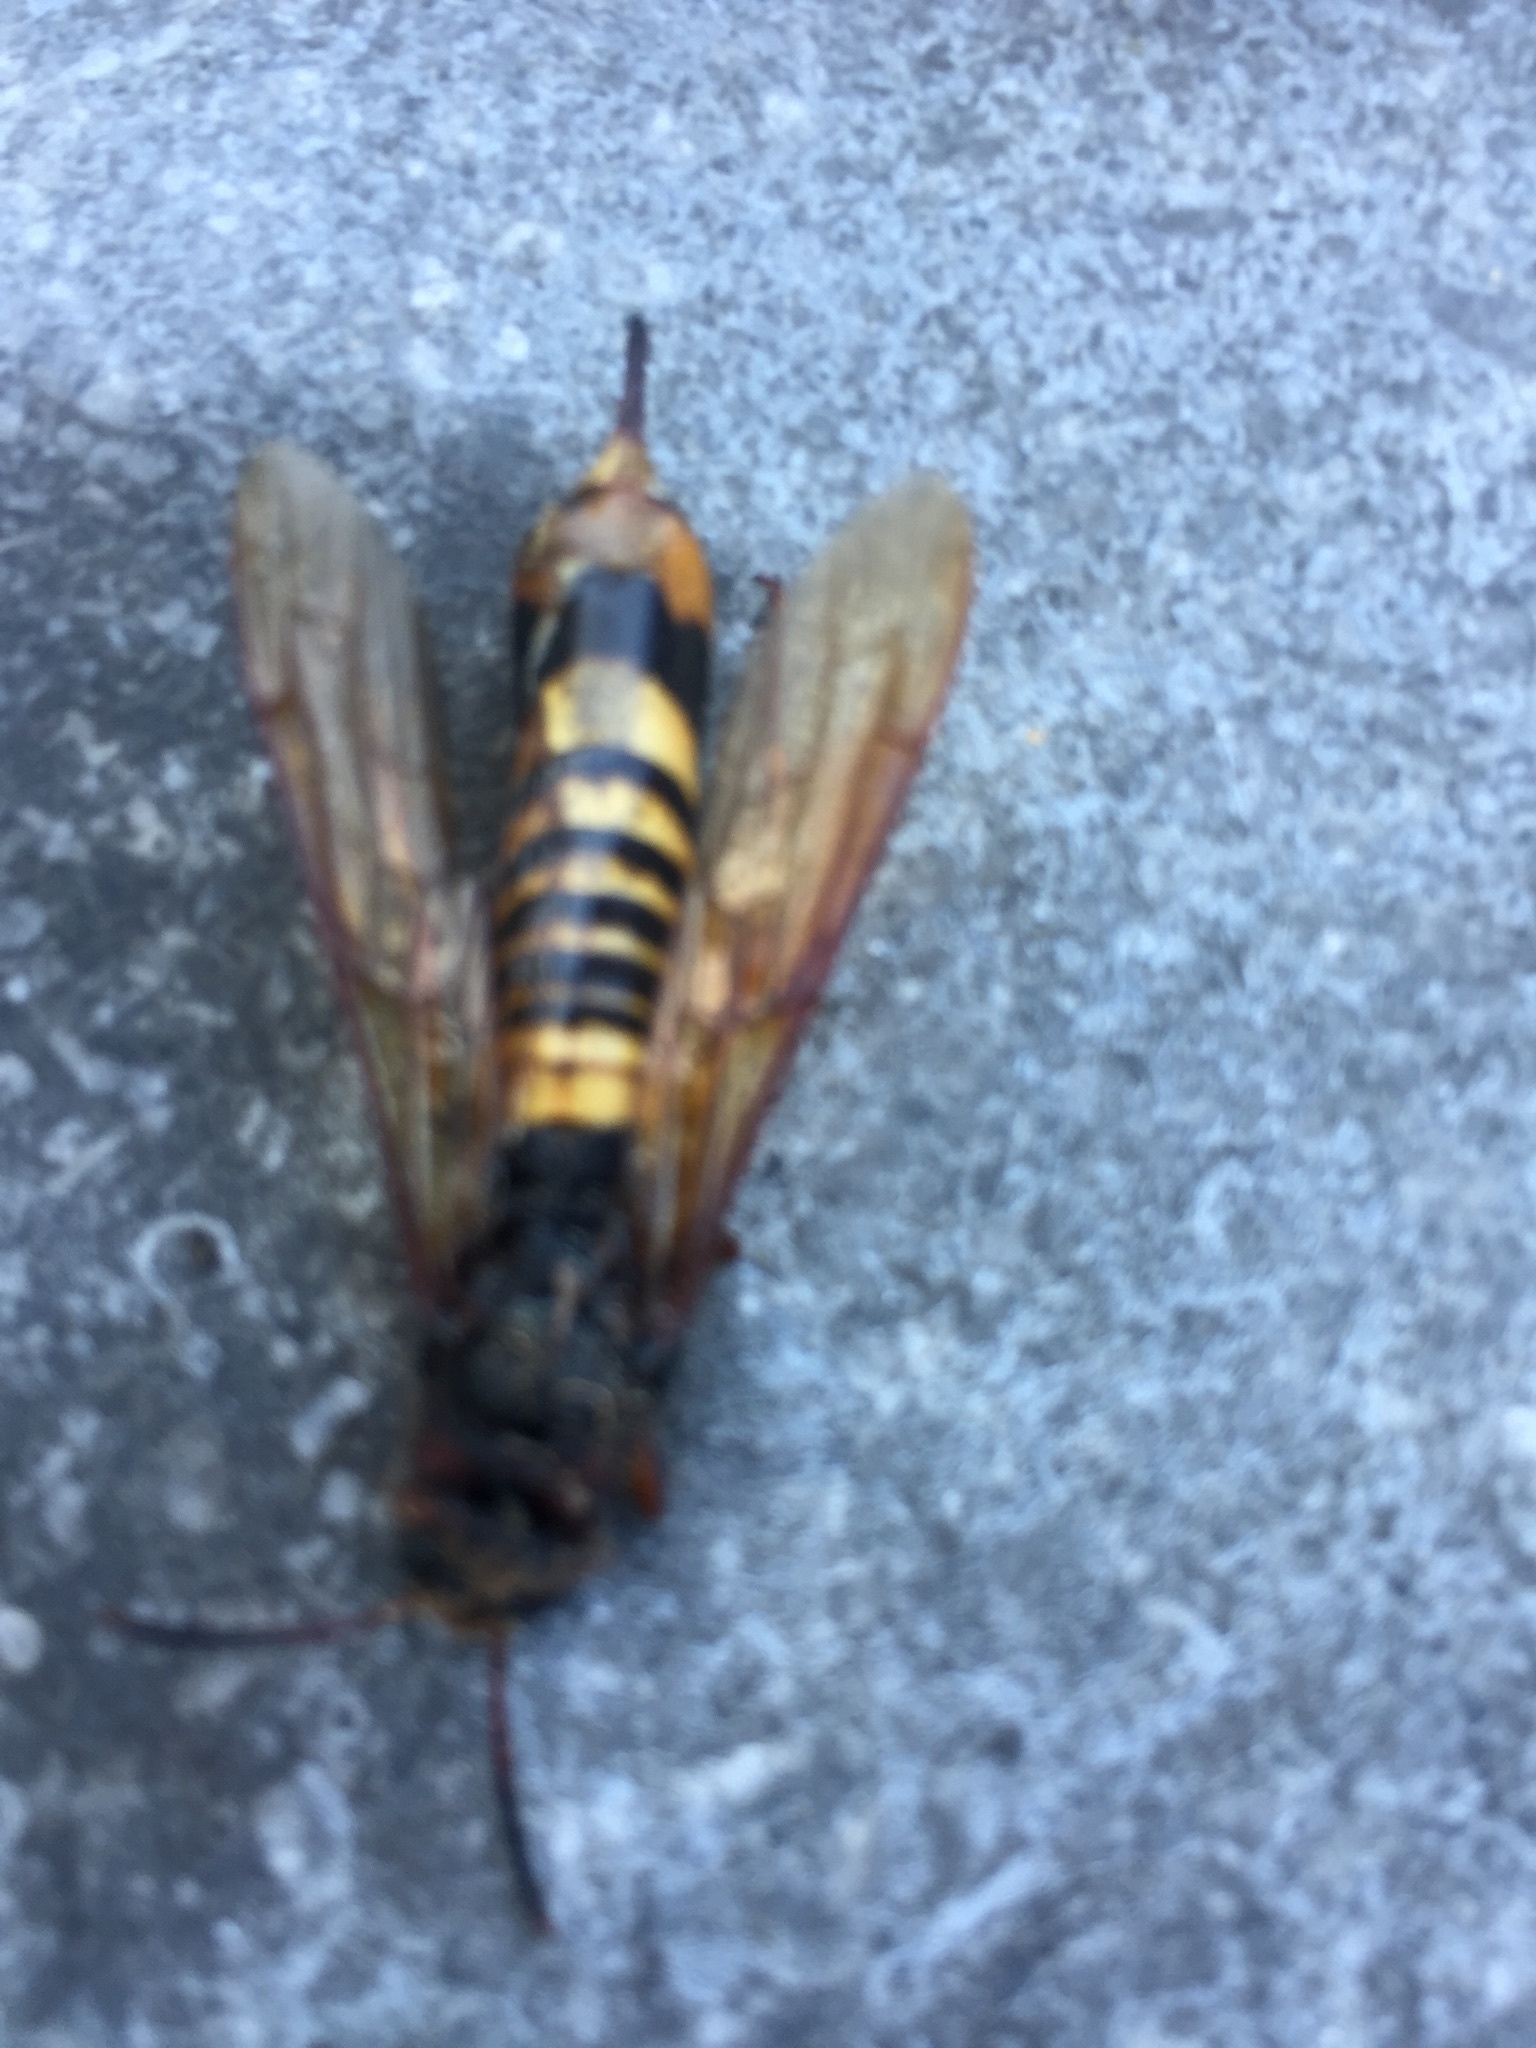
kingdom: Animalia
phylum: Arthropoda
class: Insecta
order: Hymenoptera
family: Siricidae
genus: Tremex
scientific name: Tremex fuscicornis
